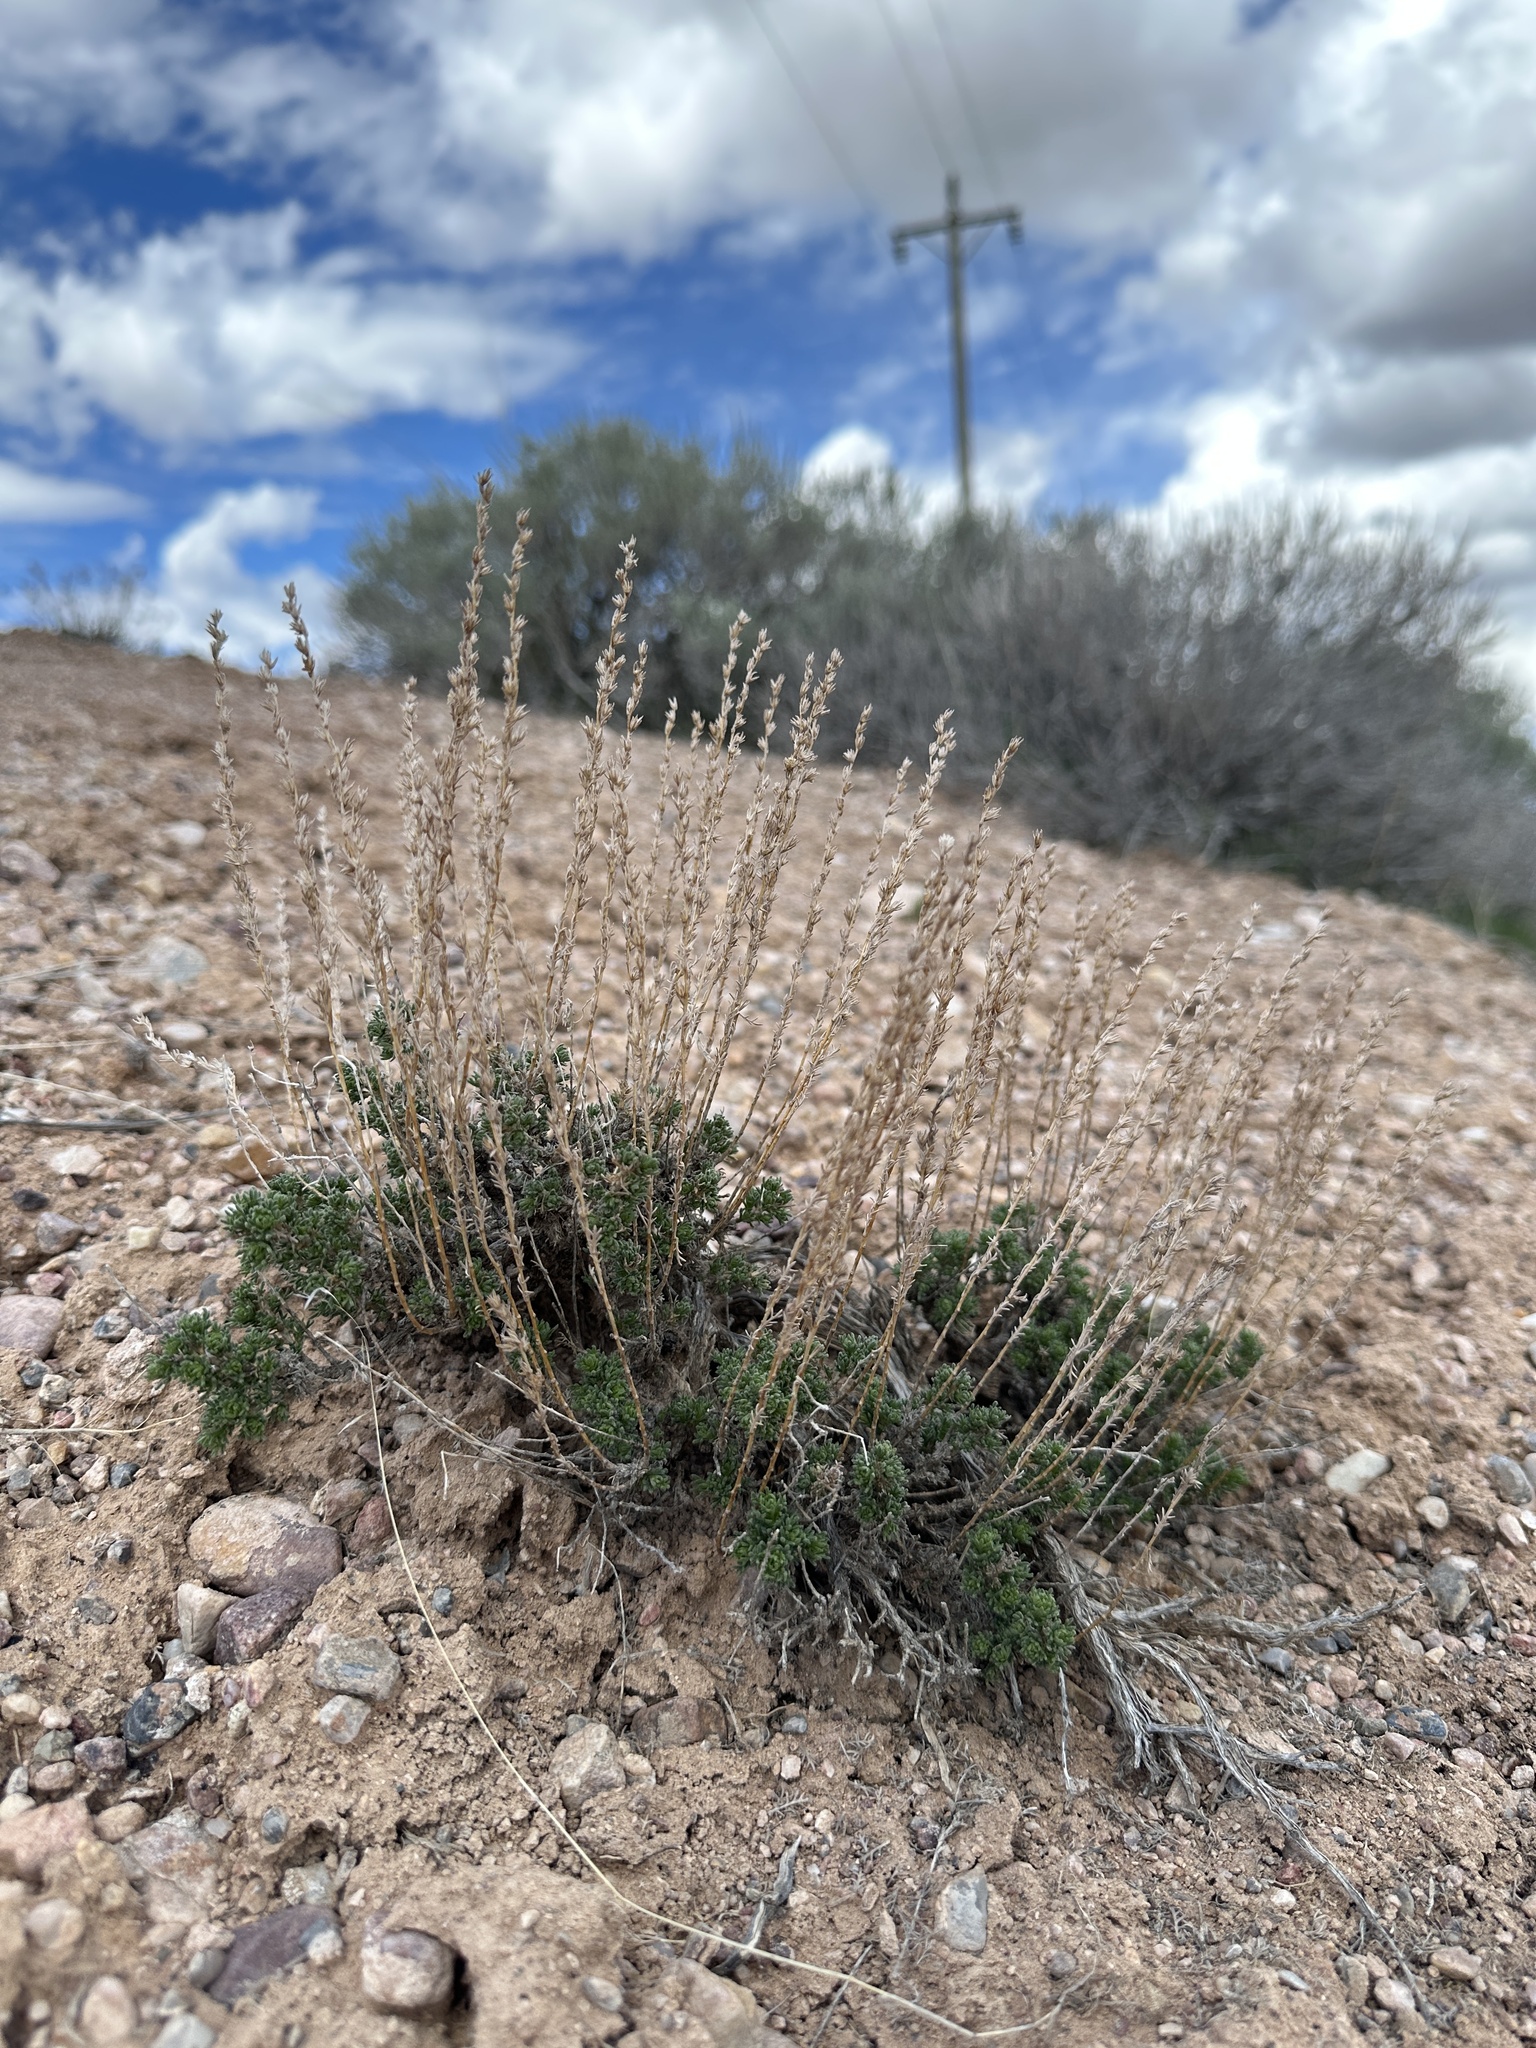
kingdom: Plantae
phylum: Tracheophyta
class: Magnoliopsida
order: Asterales
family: Asteraceae
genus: Artemisia
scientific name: Artemisia pygmaea
